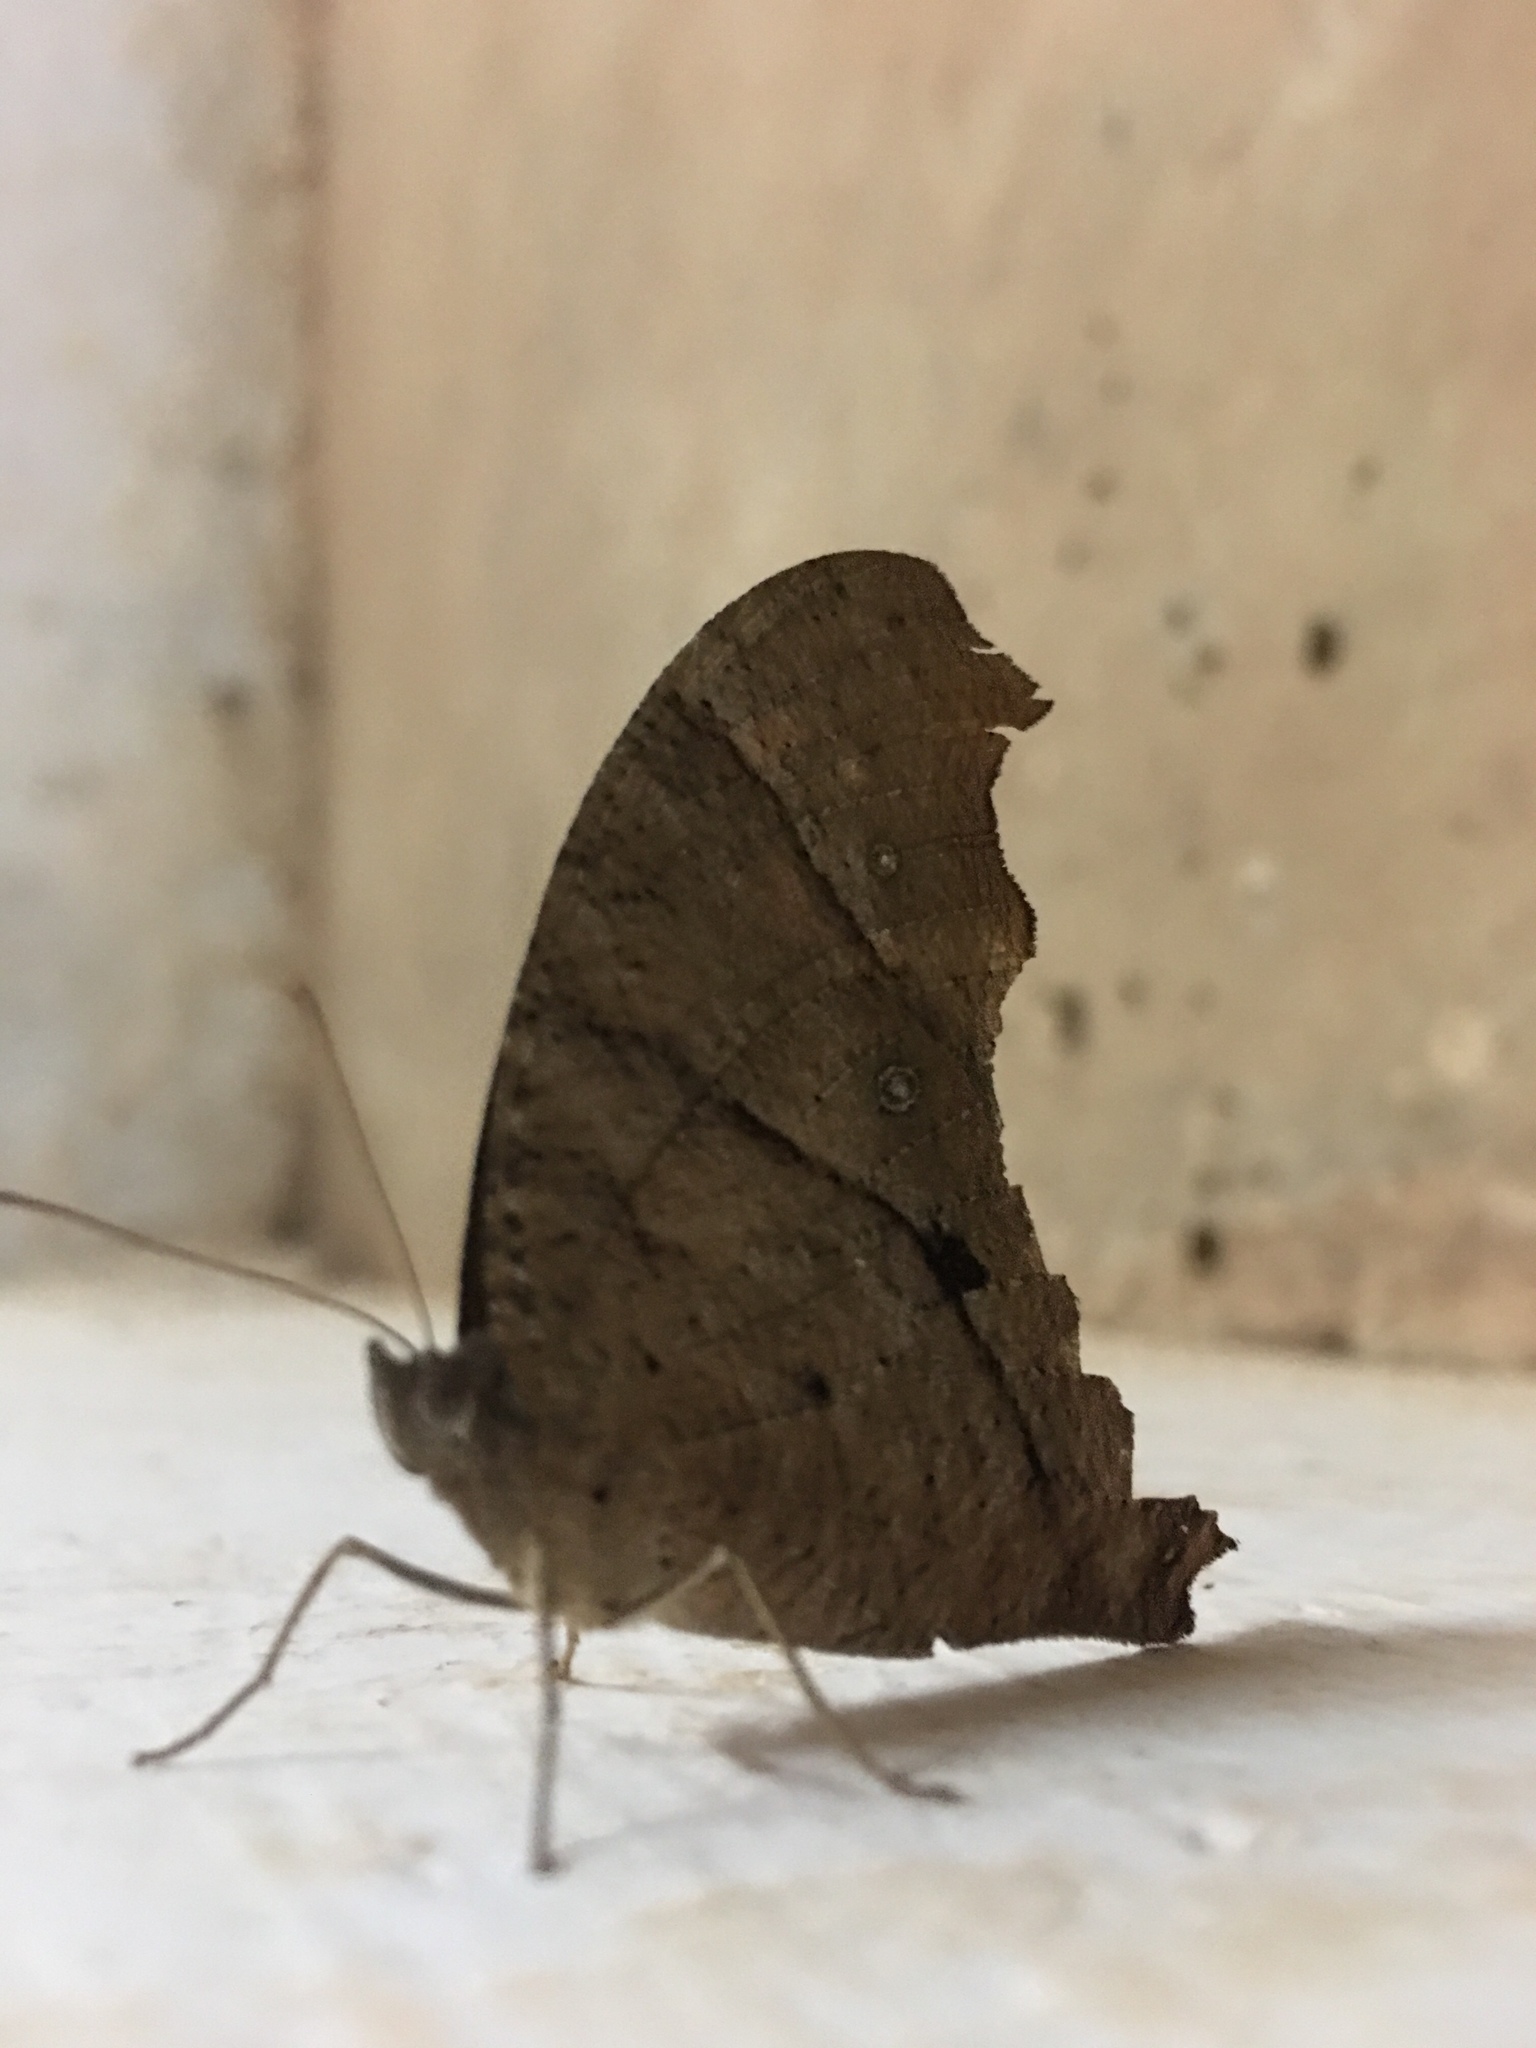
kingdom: Animalia
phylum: Arthropoda
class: Insecta
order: Lepidoptera
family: Nymphalidae
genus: Melanitis
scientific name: Melanitis leda
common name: Twilight brown
